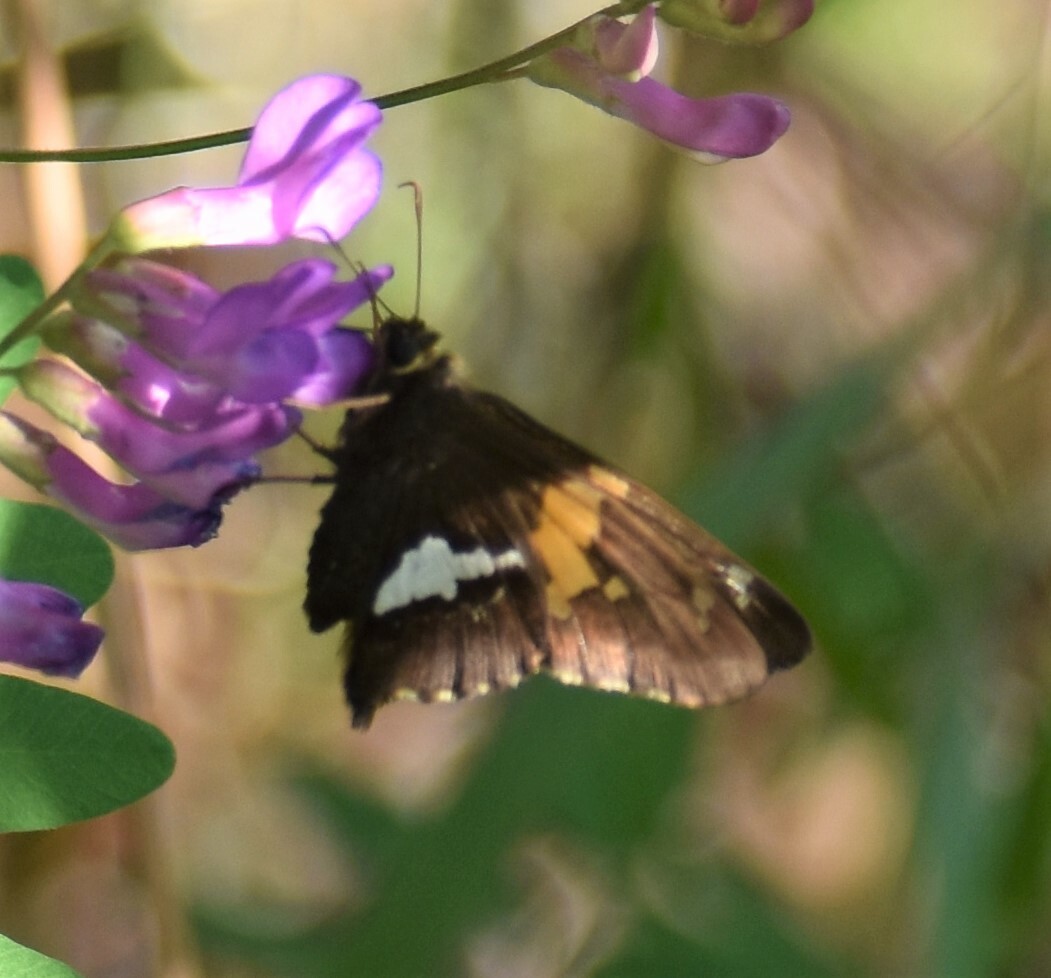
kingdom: Animalia
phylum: Arthropoda
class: Insecta
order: Lepidoptera
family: Hesperiidae
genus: Epargyreus
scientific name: Epargyreus clarus
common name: Silver-spotted skipper
